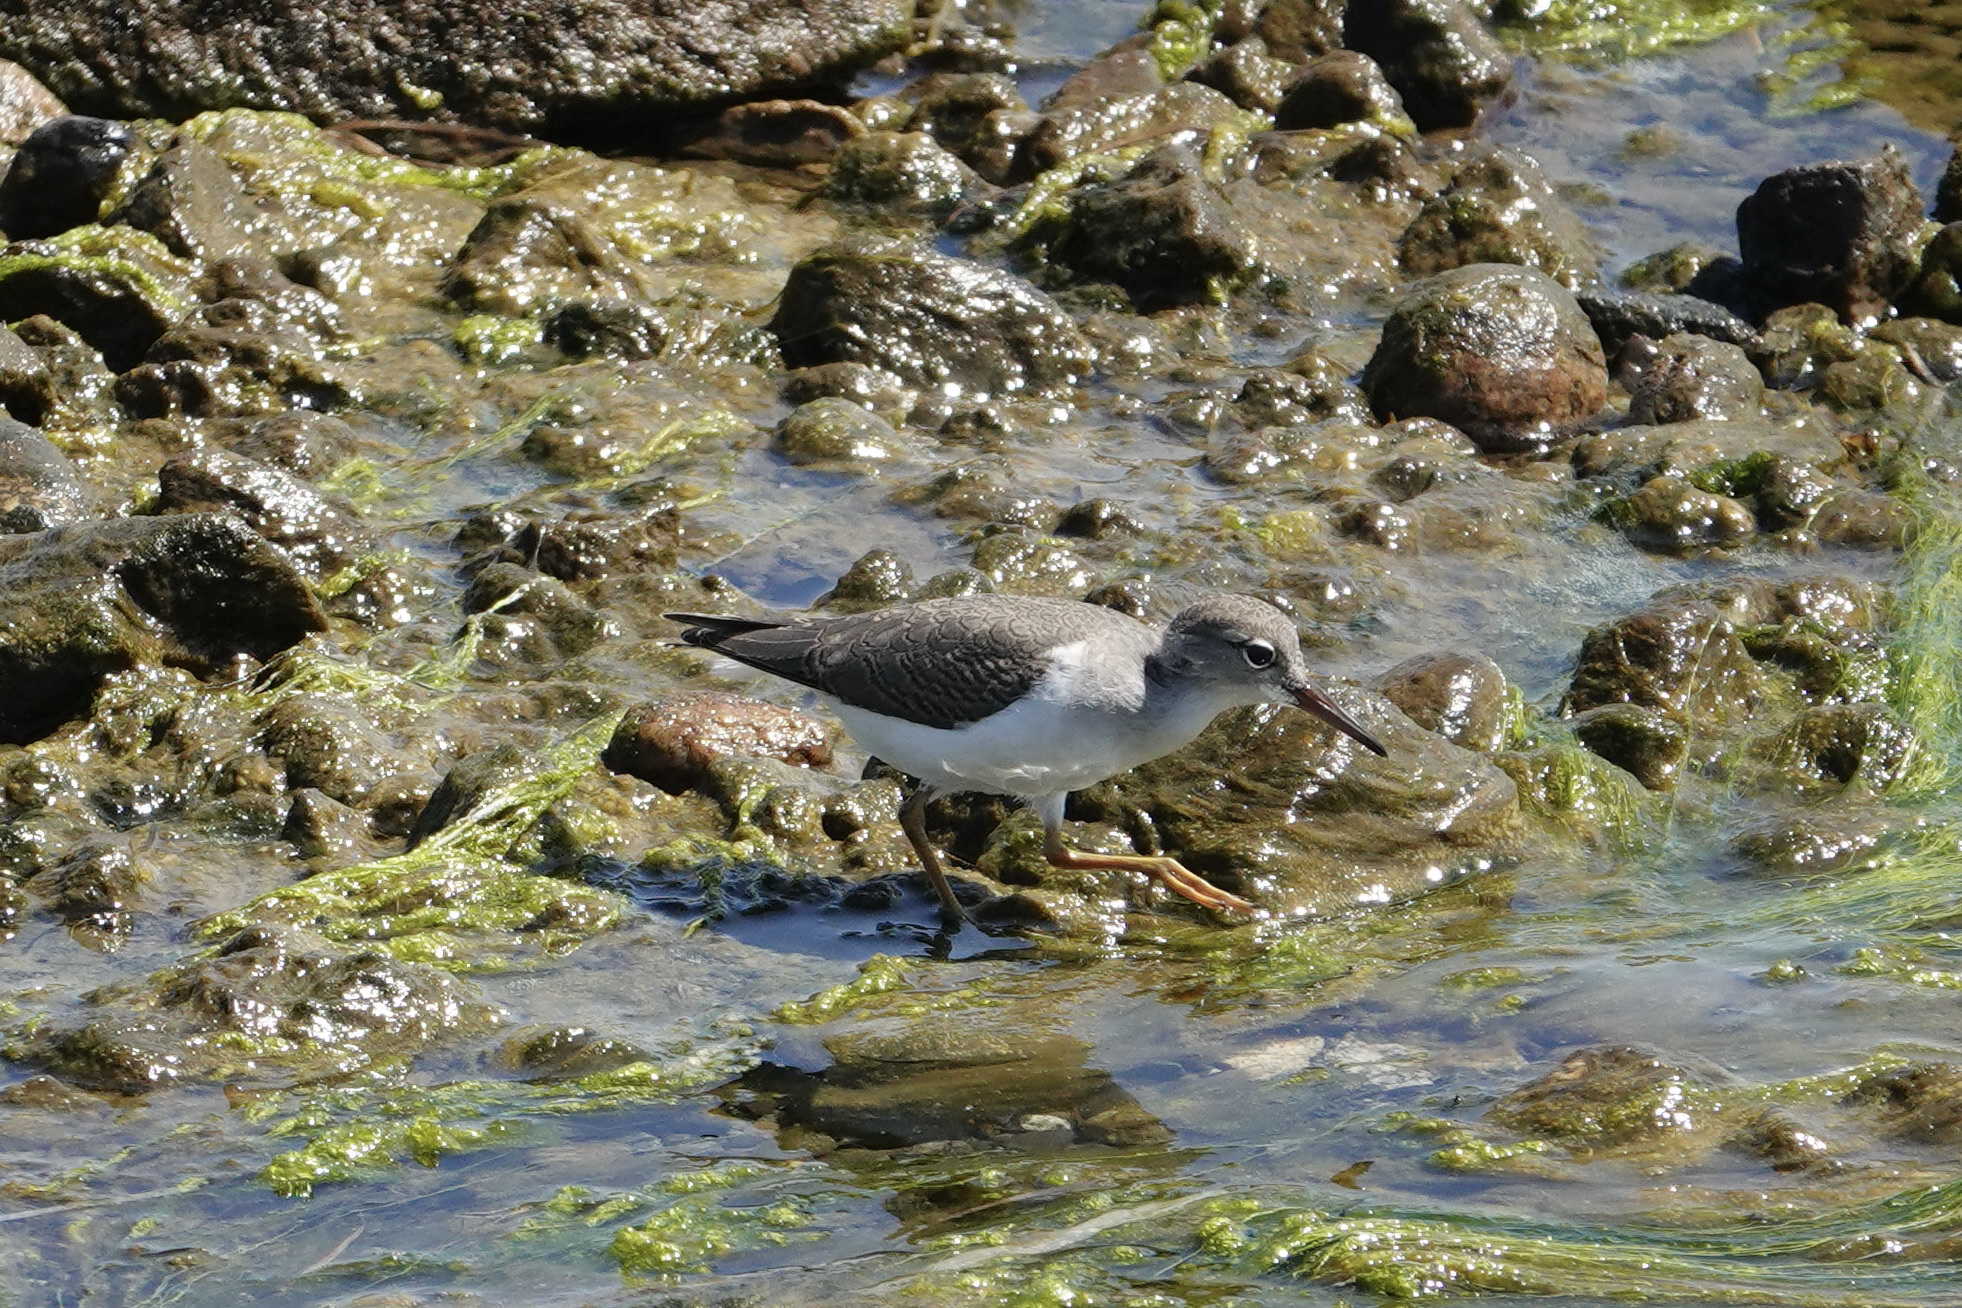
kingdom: Animalia
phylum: Chordata
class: Aves
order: Charadriiformes
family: Scolopacidae
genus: Actitis
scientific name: Actitis macularius
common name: Spotted sandpiper
